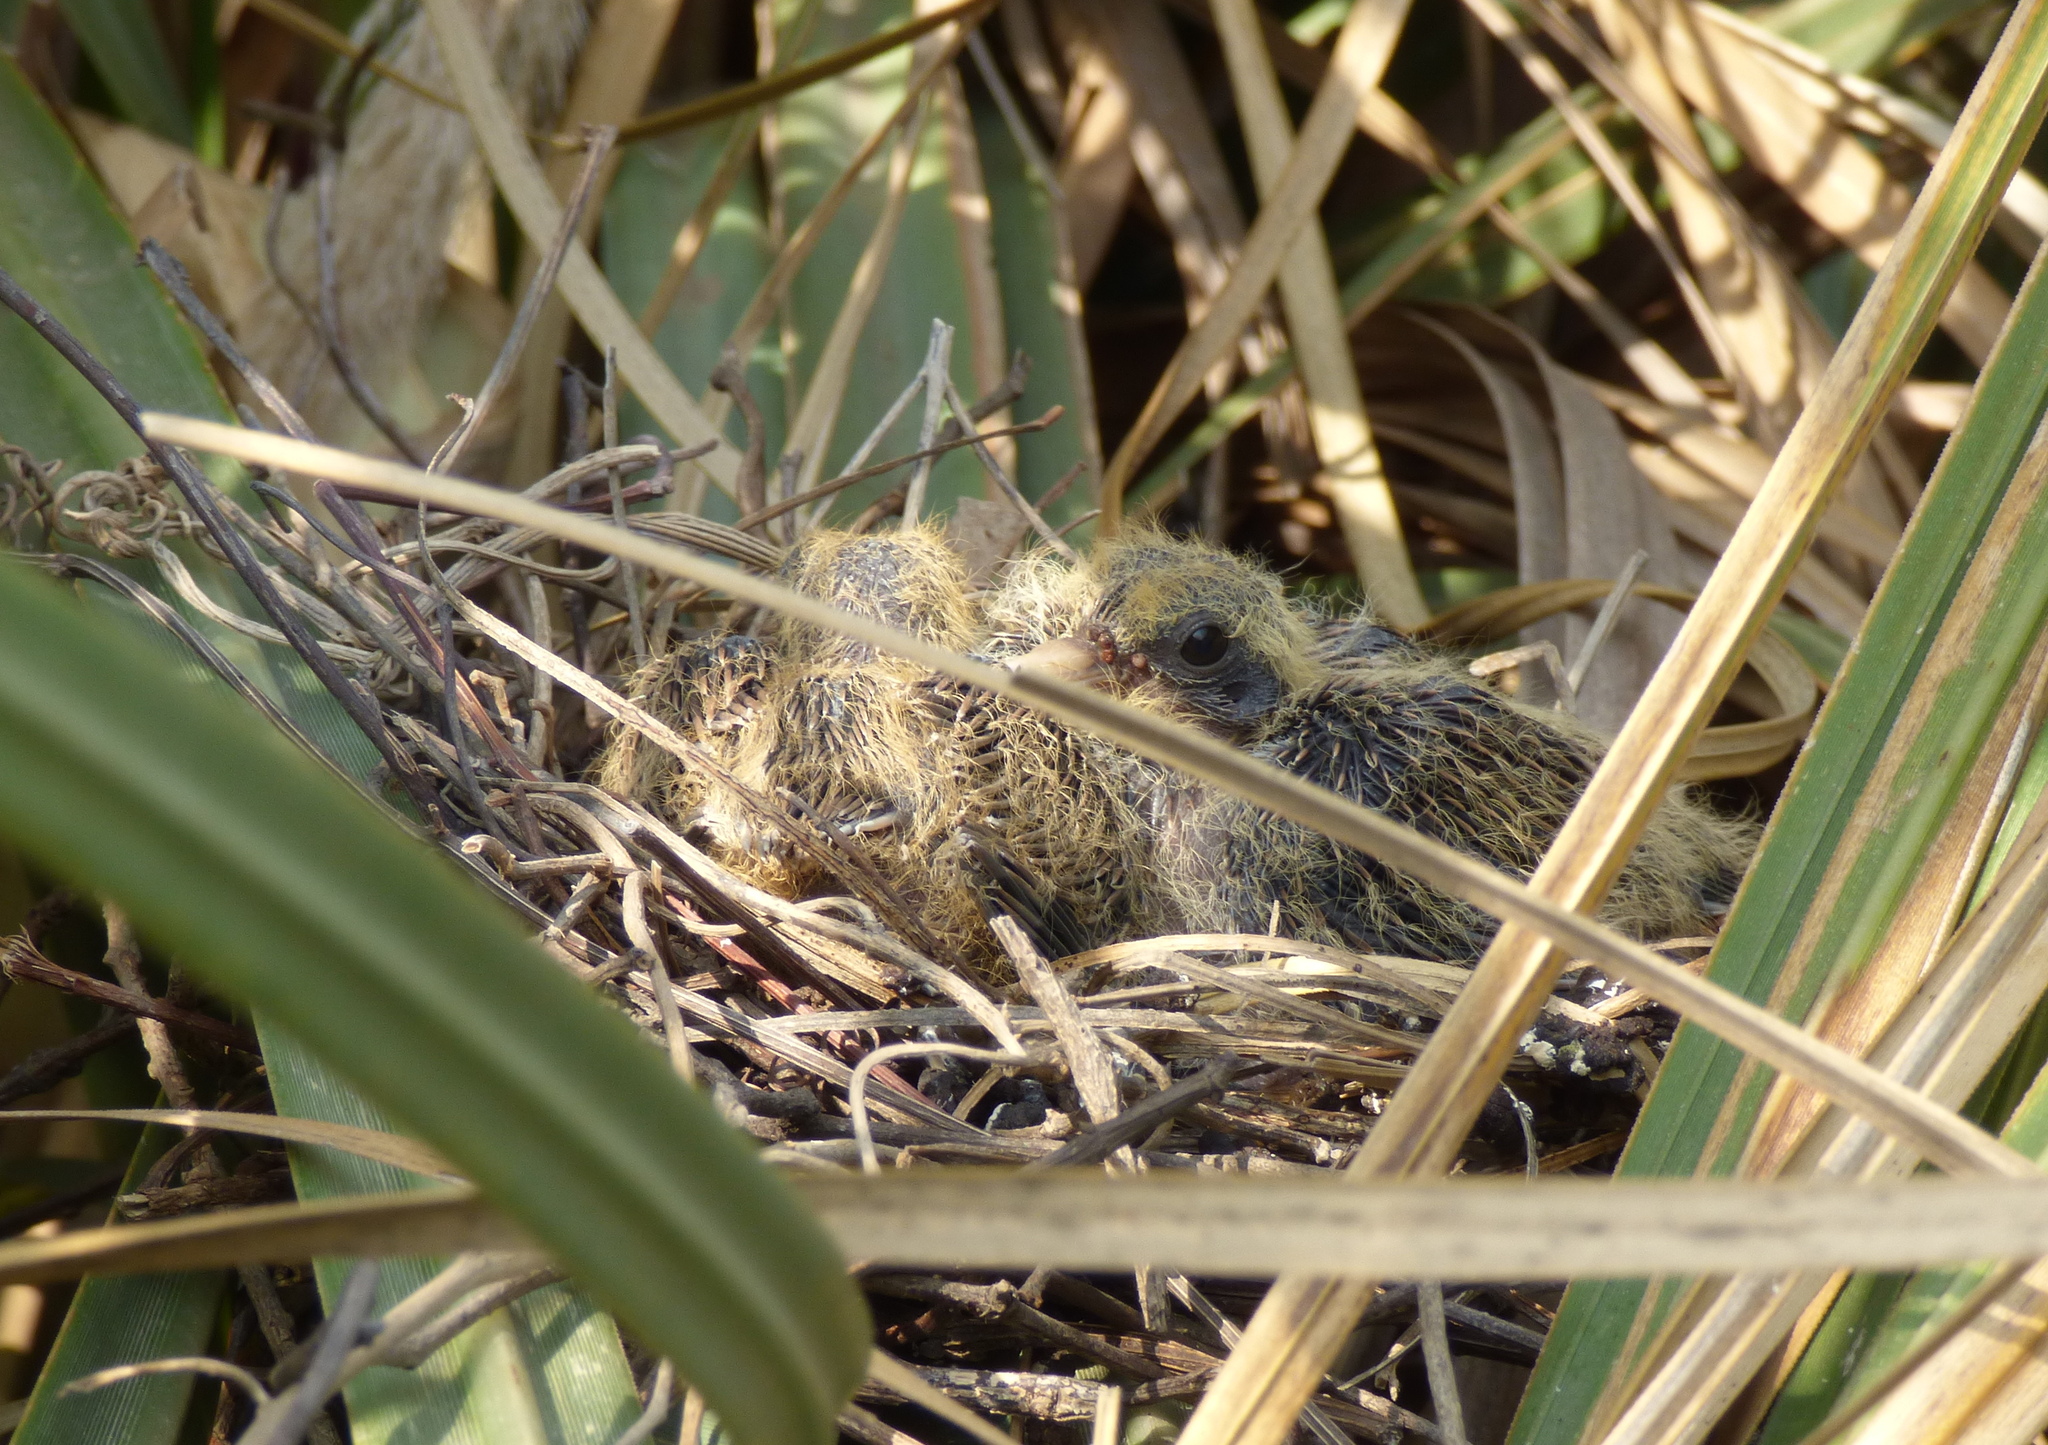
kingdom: Animalia
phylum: Chordata
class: Aves
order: Columbiformes
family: Columbidae
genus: Zenaida
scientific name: Zenaida auriculata
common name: Eared dove
